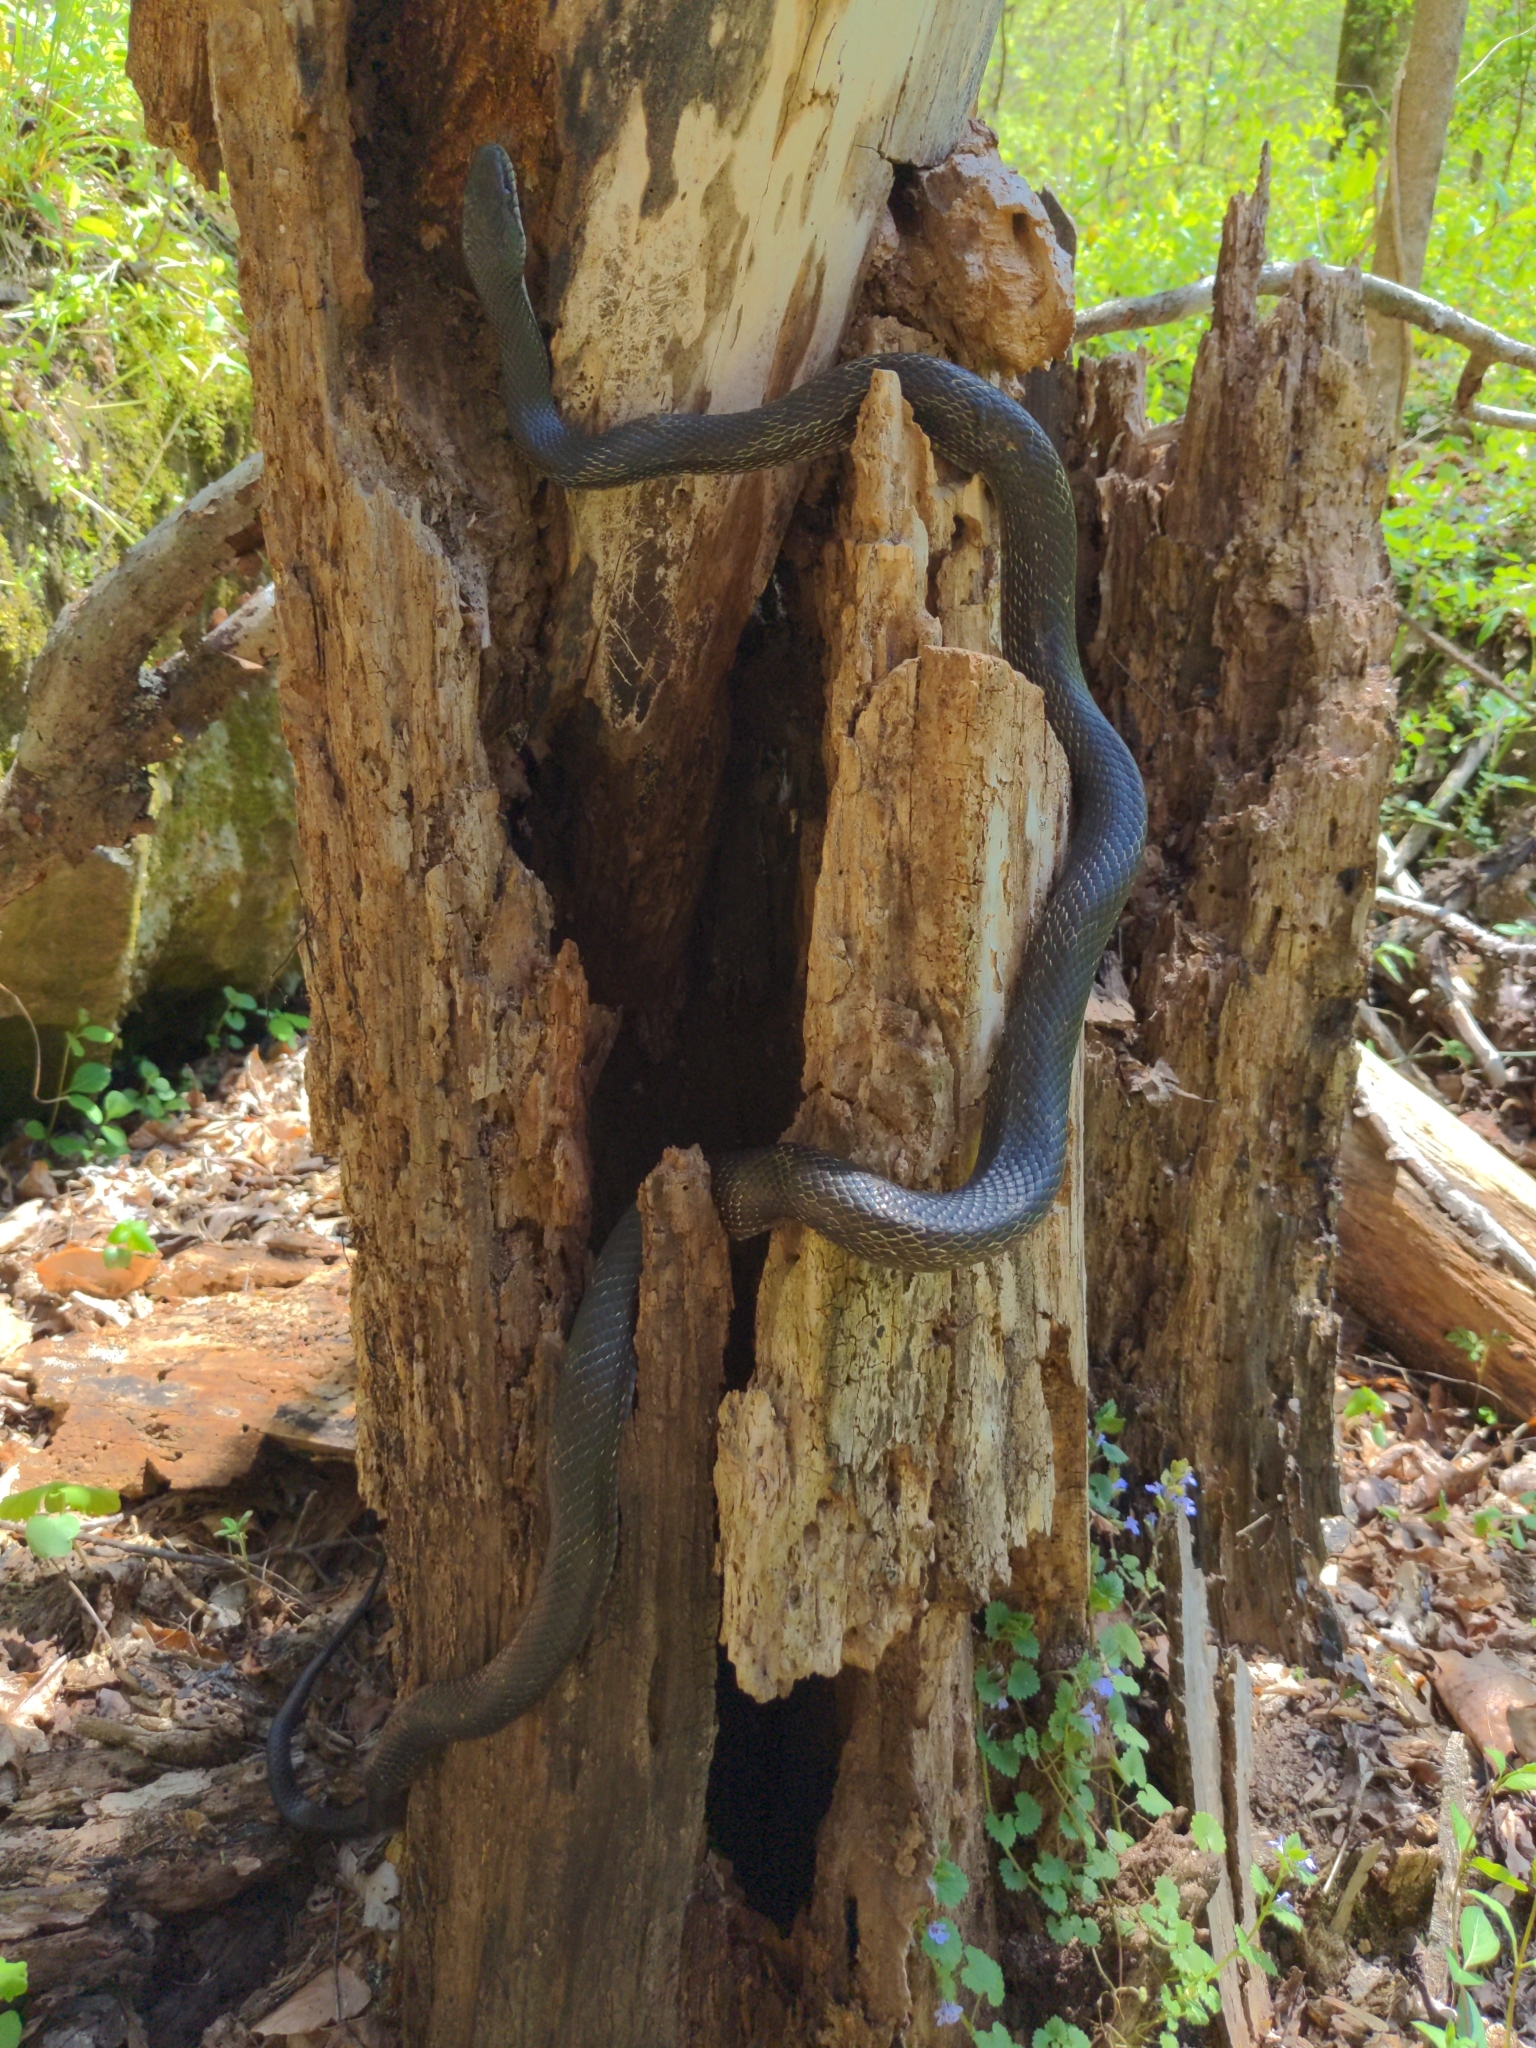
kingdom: Animalia
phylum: Chordata
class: Squamata
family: Colubridae
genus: Pantherophis
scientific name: Pantherophis spiloides
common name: Gray rat snake
